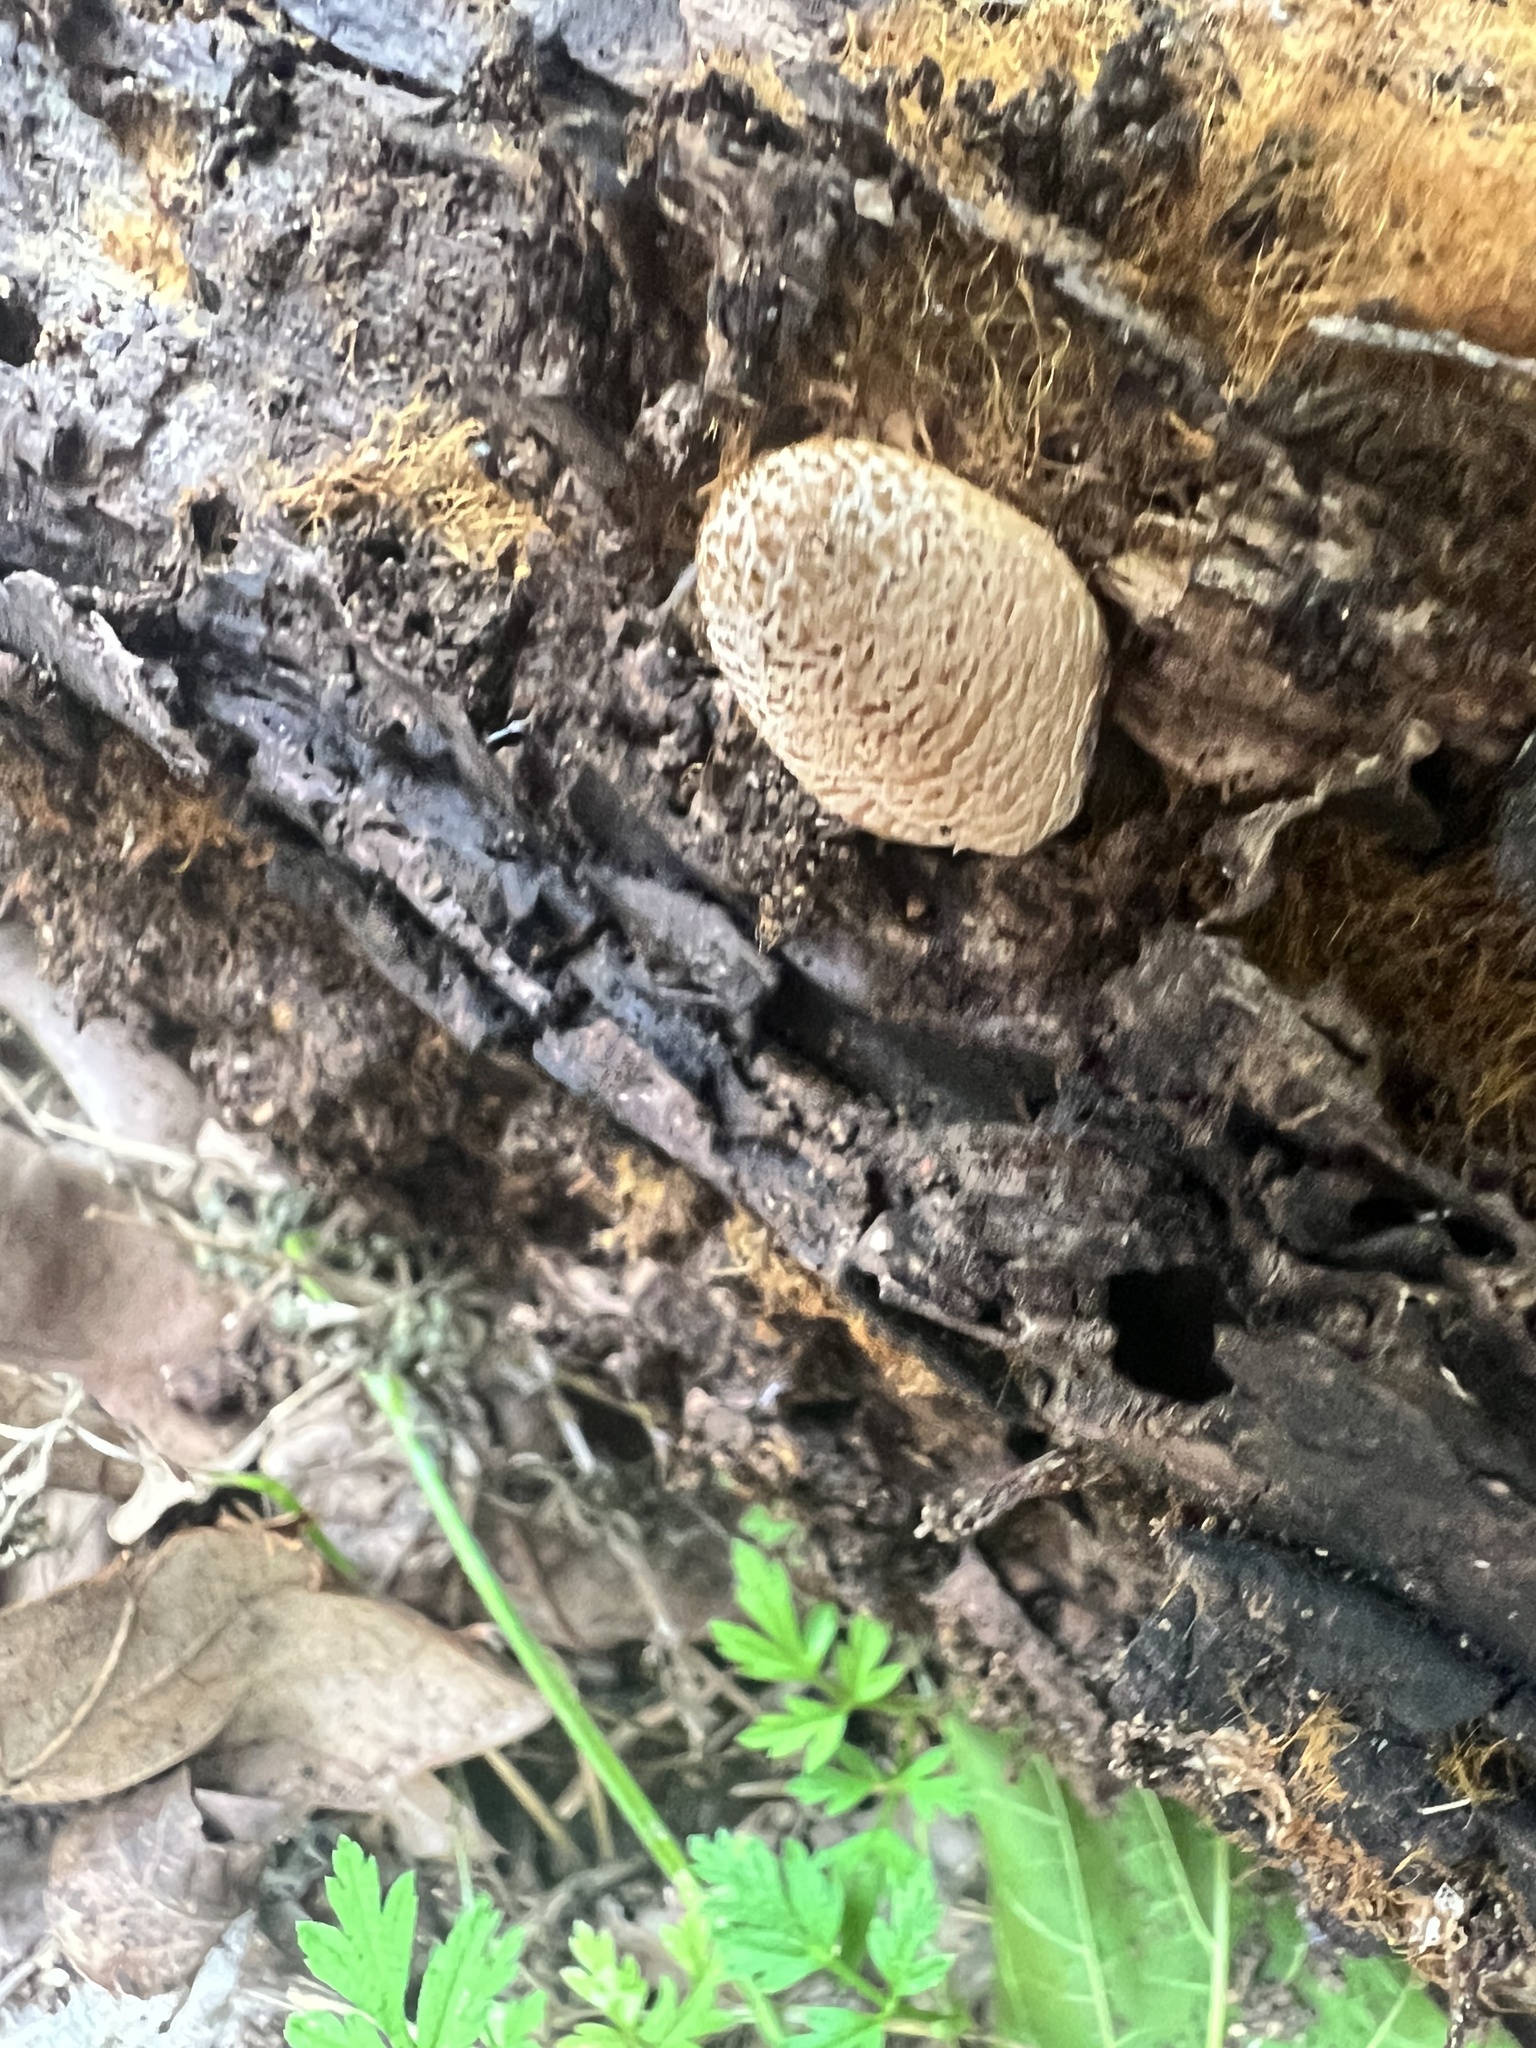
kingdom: Fungi
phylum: Basidiomycota
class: Agaricomycetes
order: Agaricales
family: Psathyrellaceae
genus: Coprinellus
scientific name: Coprinellus domesticus
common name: Firerug inkcap
